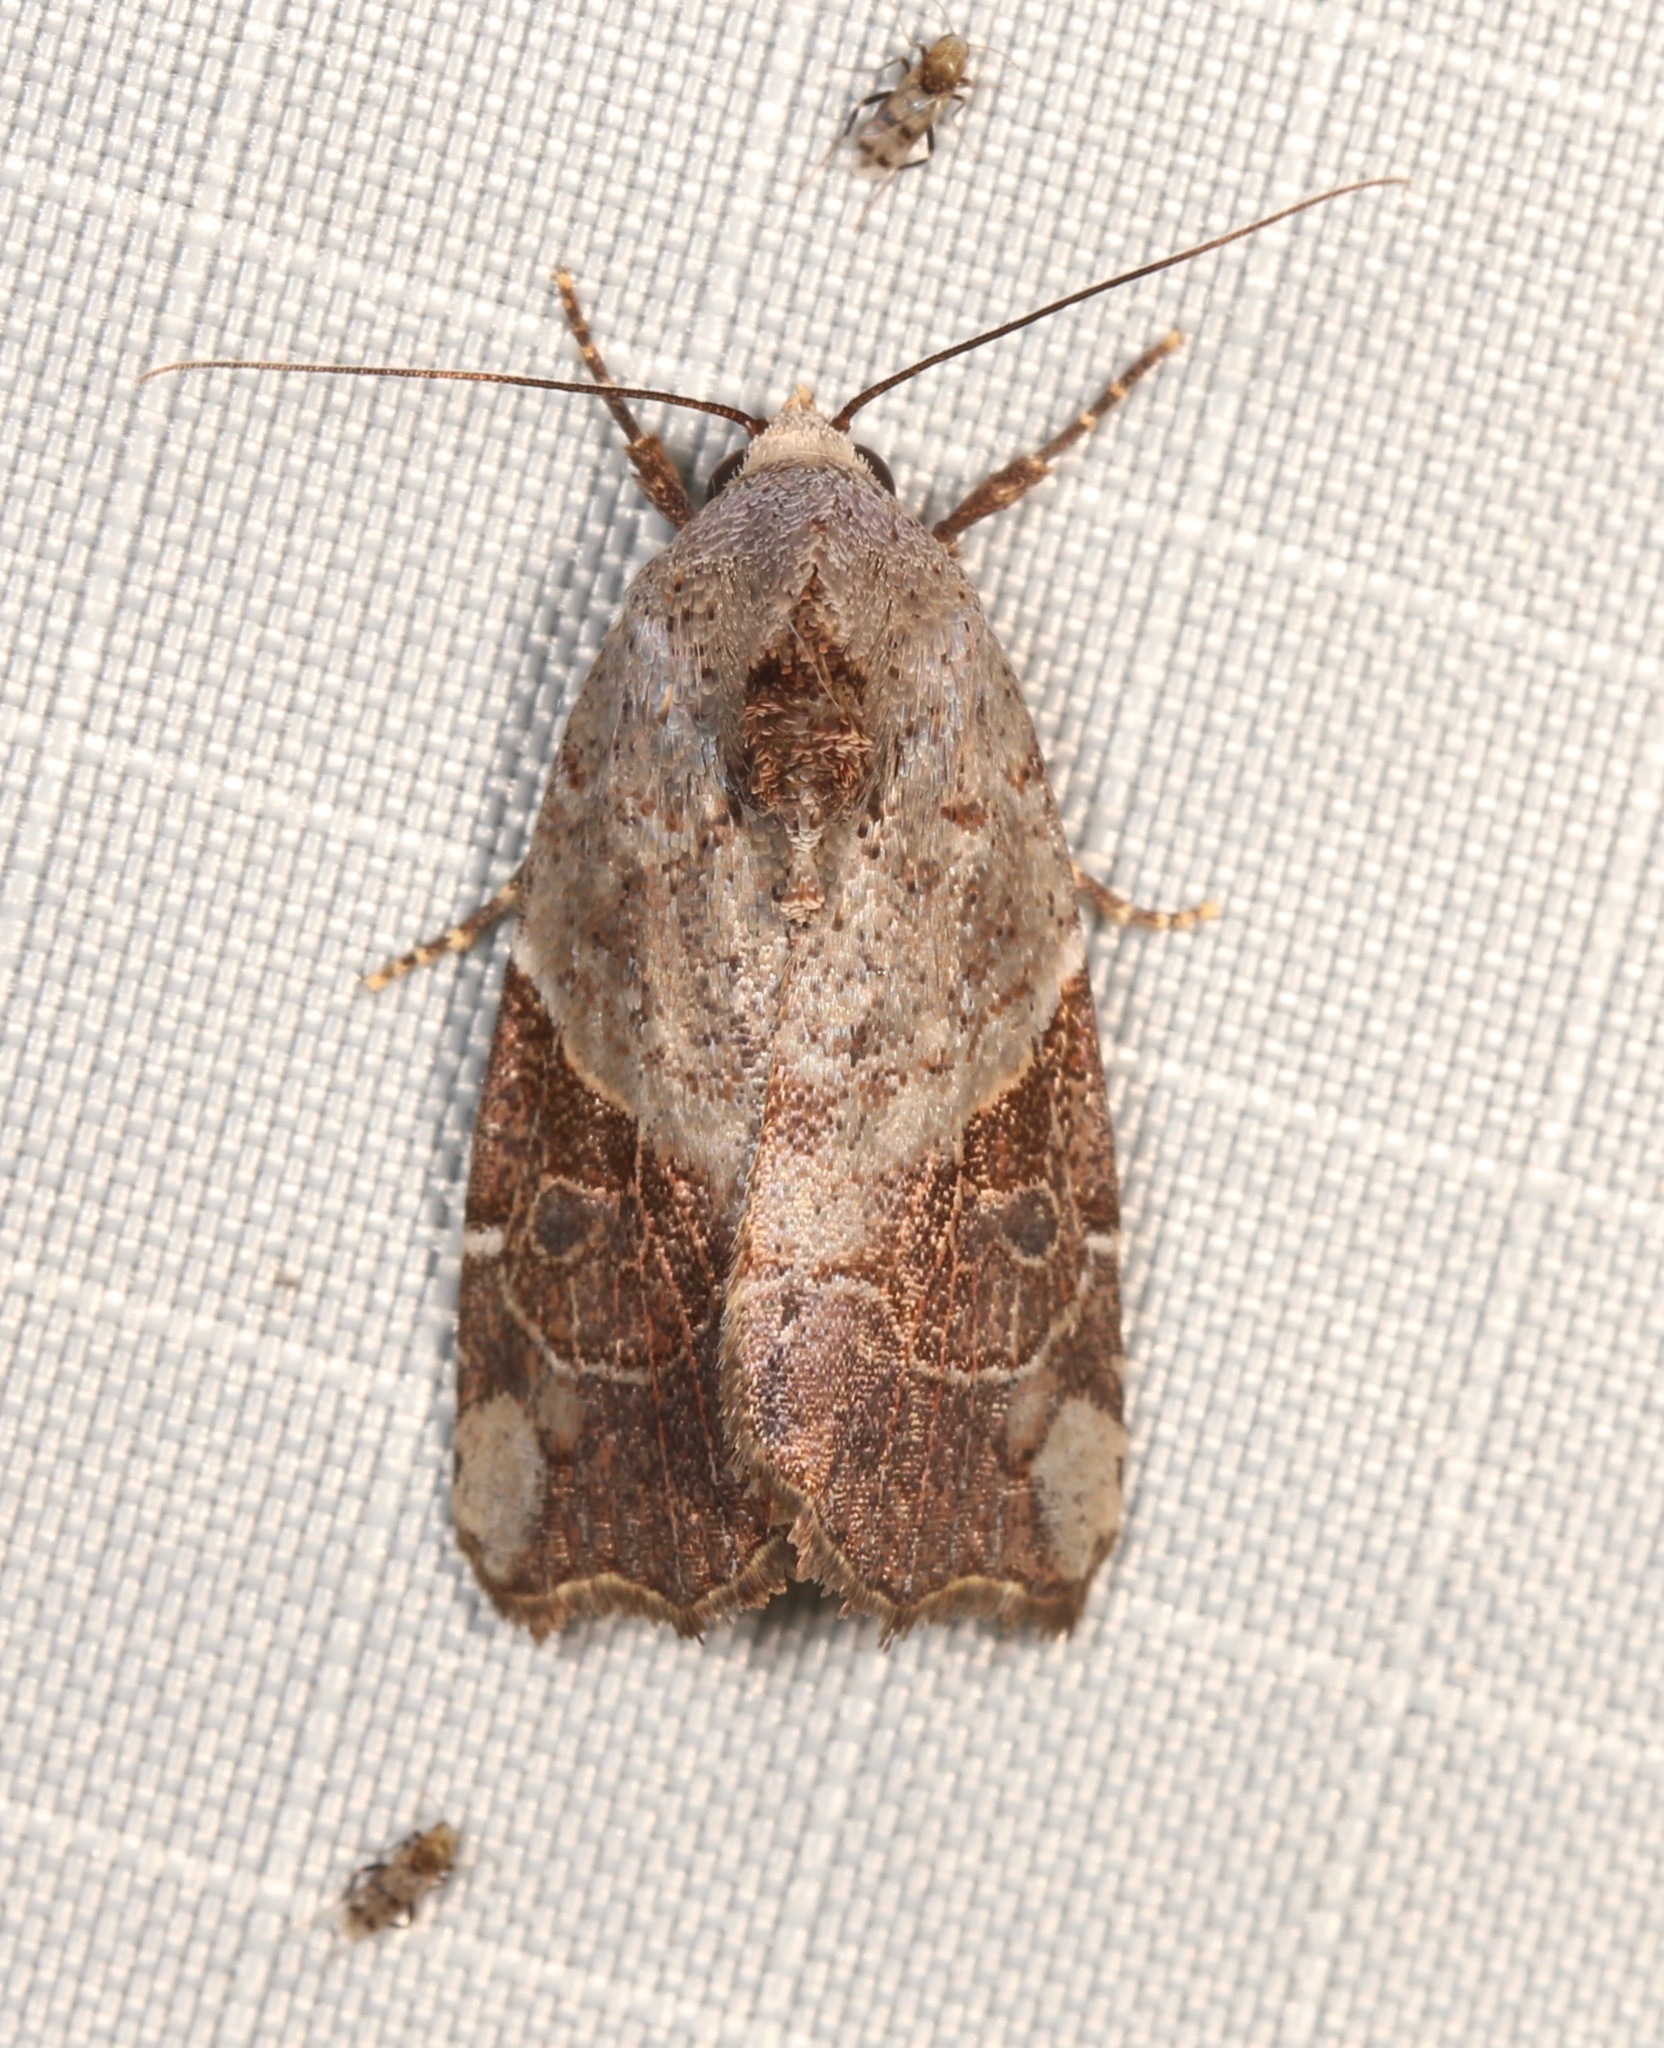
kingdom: Animalia
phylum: Arthropoda
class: Insecta
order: Lepidoptera
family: Noctuidae
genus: Gonodes
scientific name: Gonodes liquida
